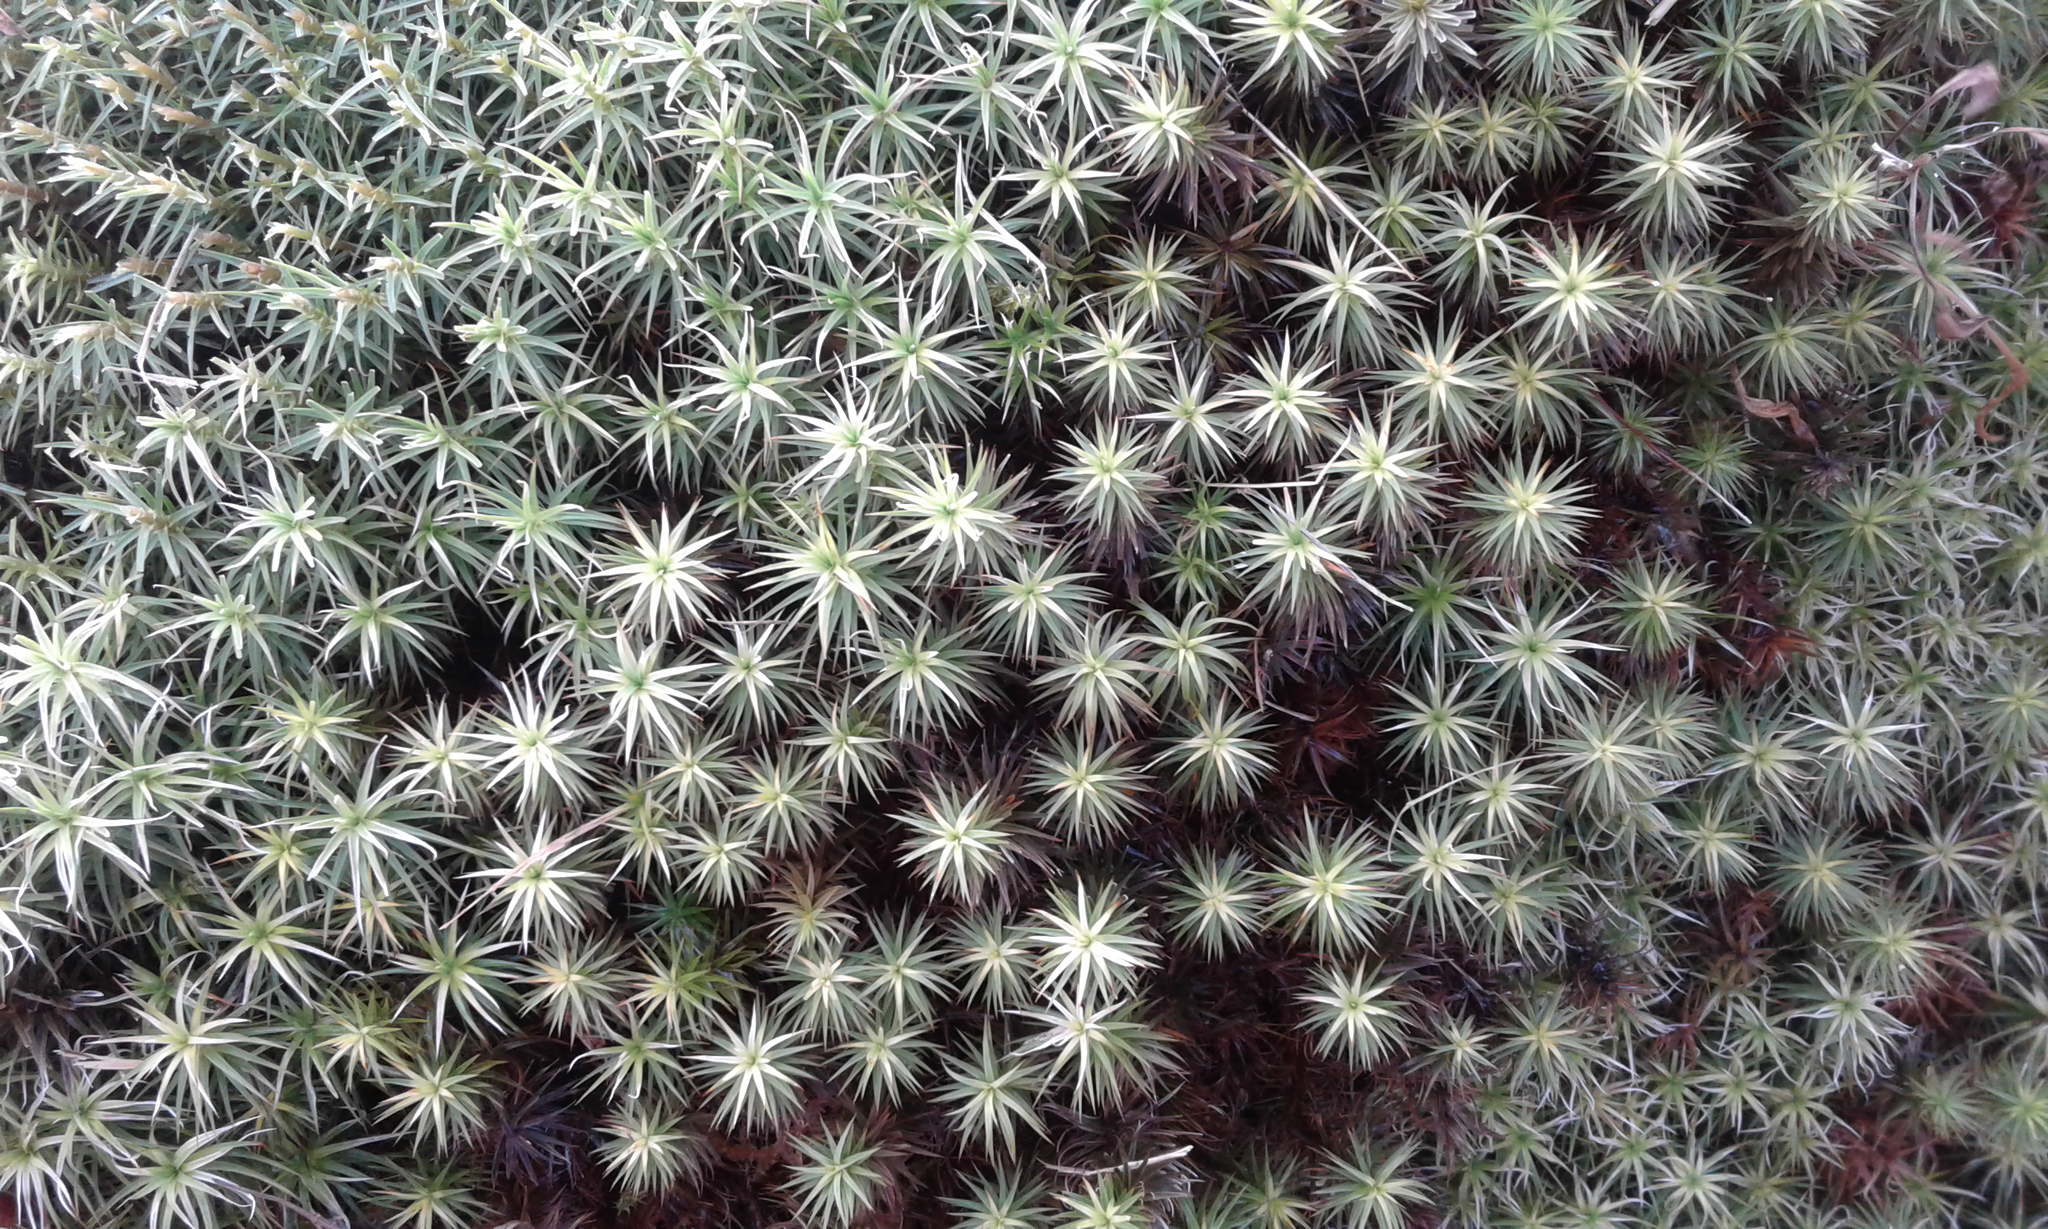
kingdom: Plantae
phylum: Bryophyta
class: Polytrichopsida
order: Polytrichales
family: Polytrichaceae
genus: Dawsonia
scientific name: Dawsonia superba
